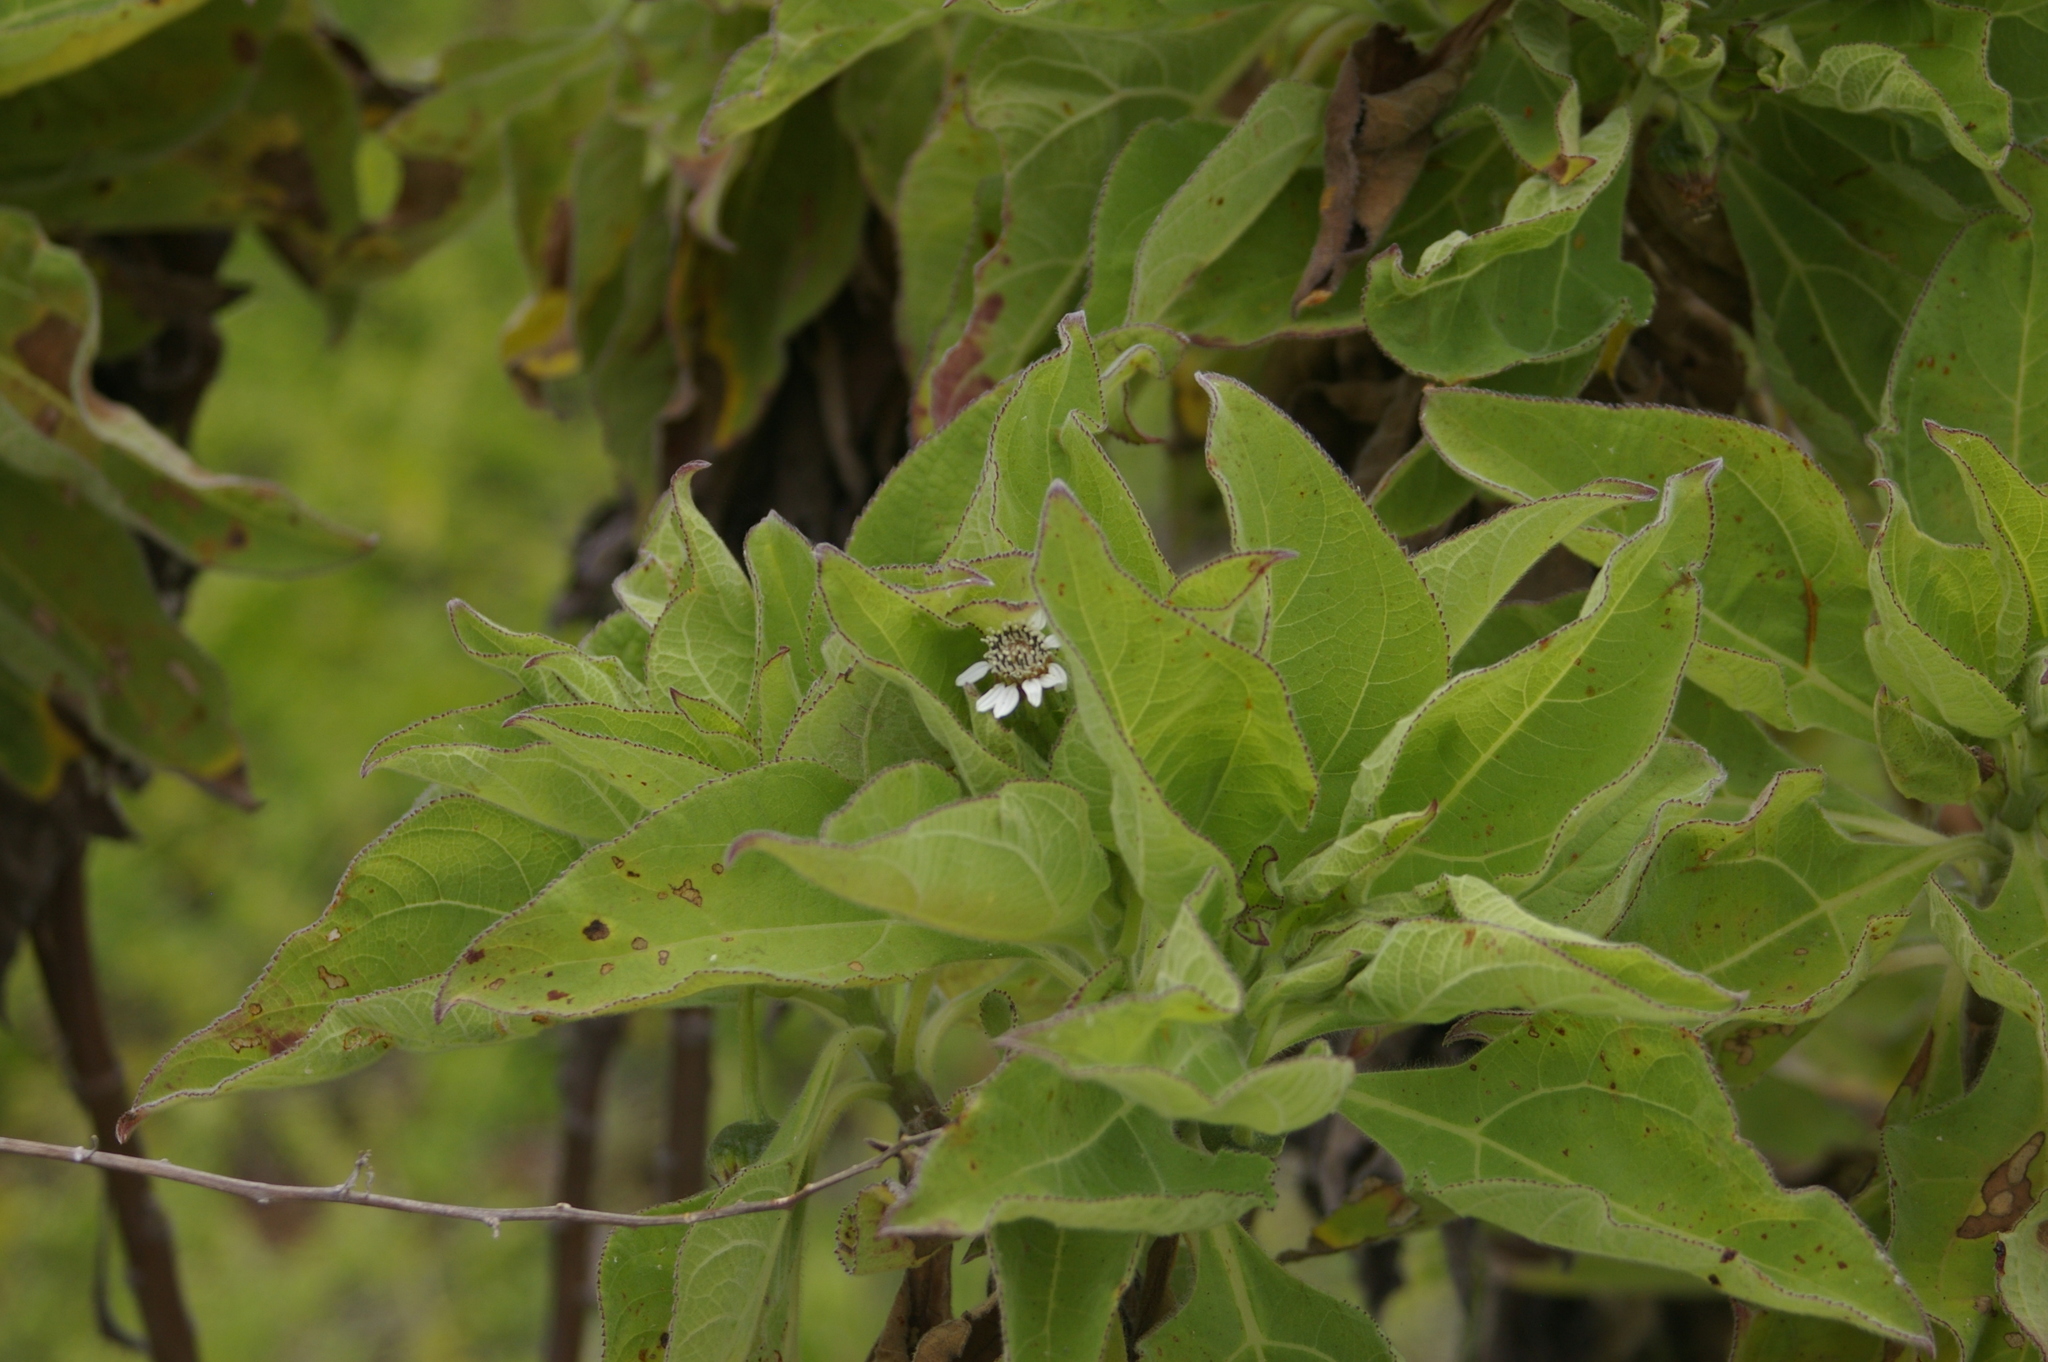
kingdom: Plantae
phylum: Tracheophyta
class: Magnoliopsida
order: Asterales
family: Asteraceae
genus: Scalesia
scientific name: Scalesia affinis
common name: Radiate-headed scalesia
